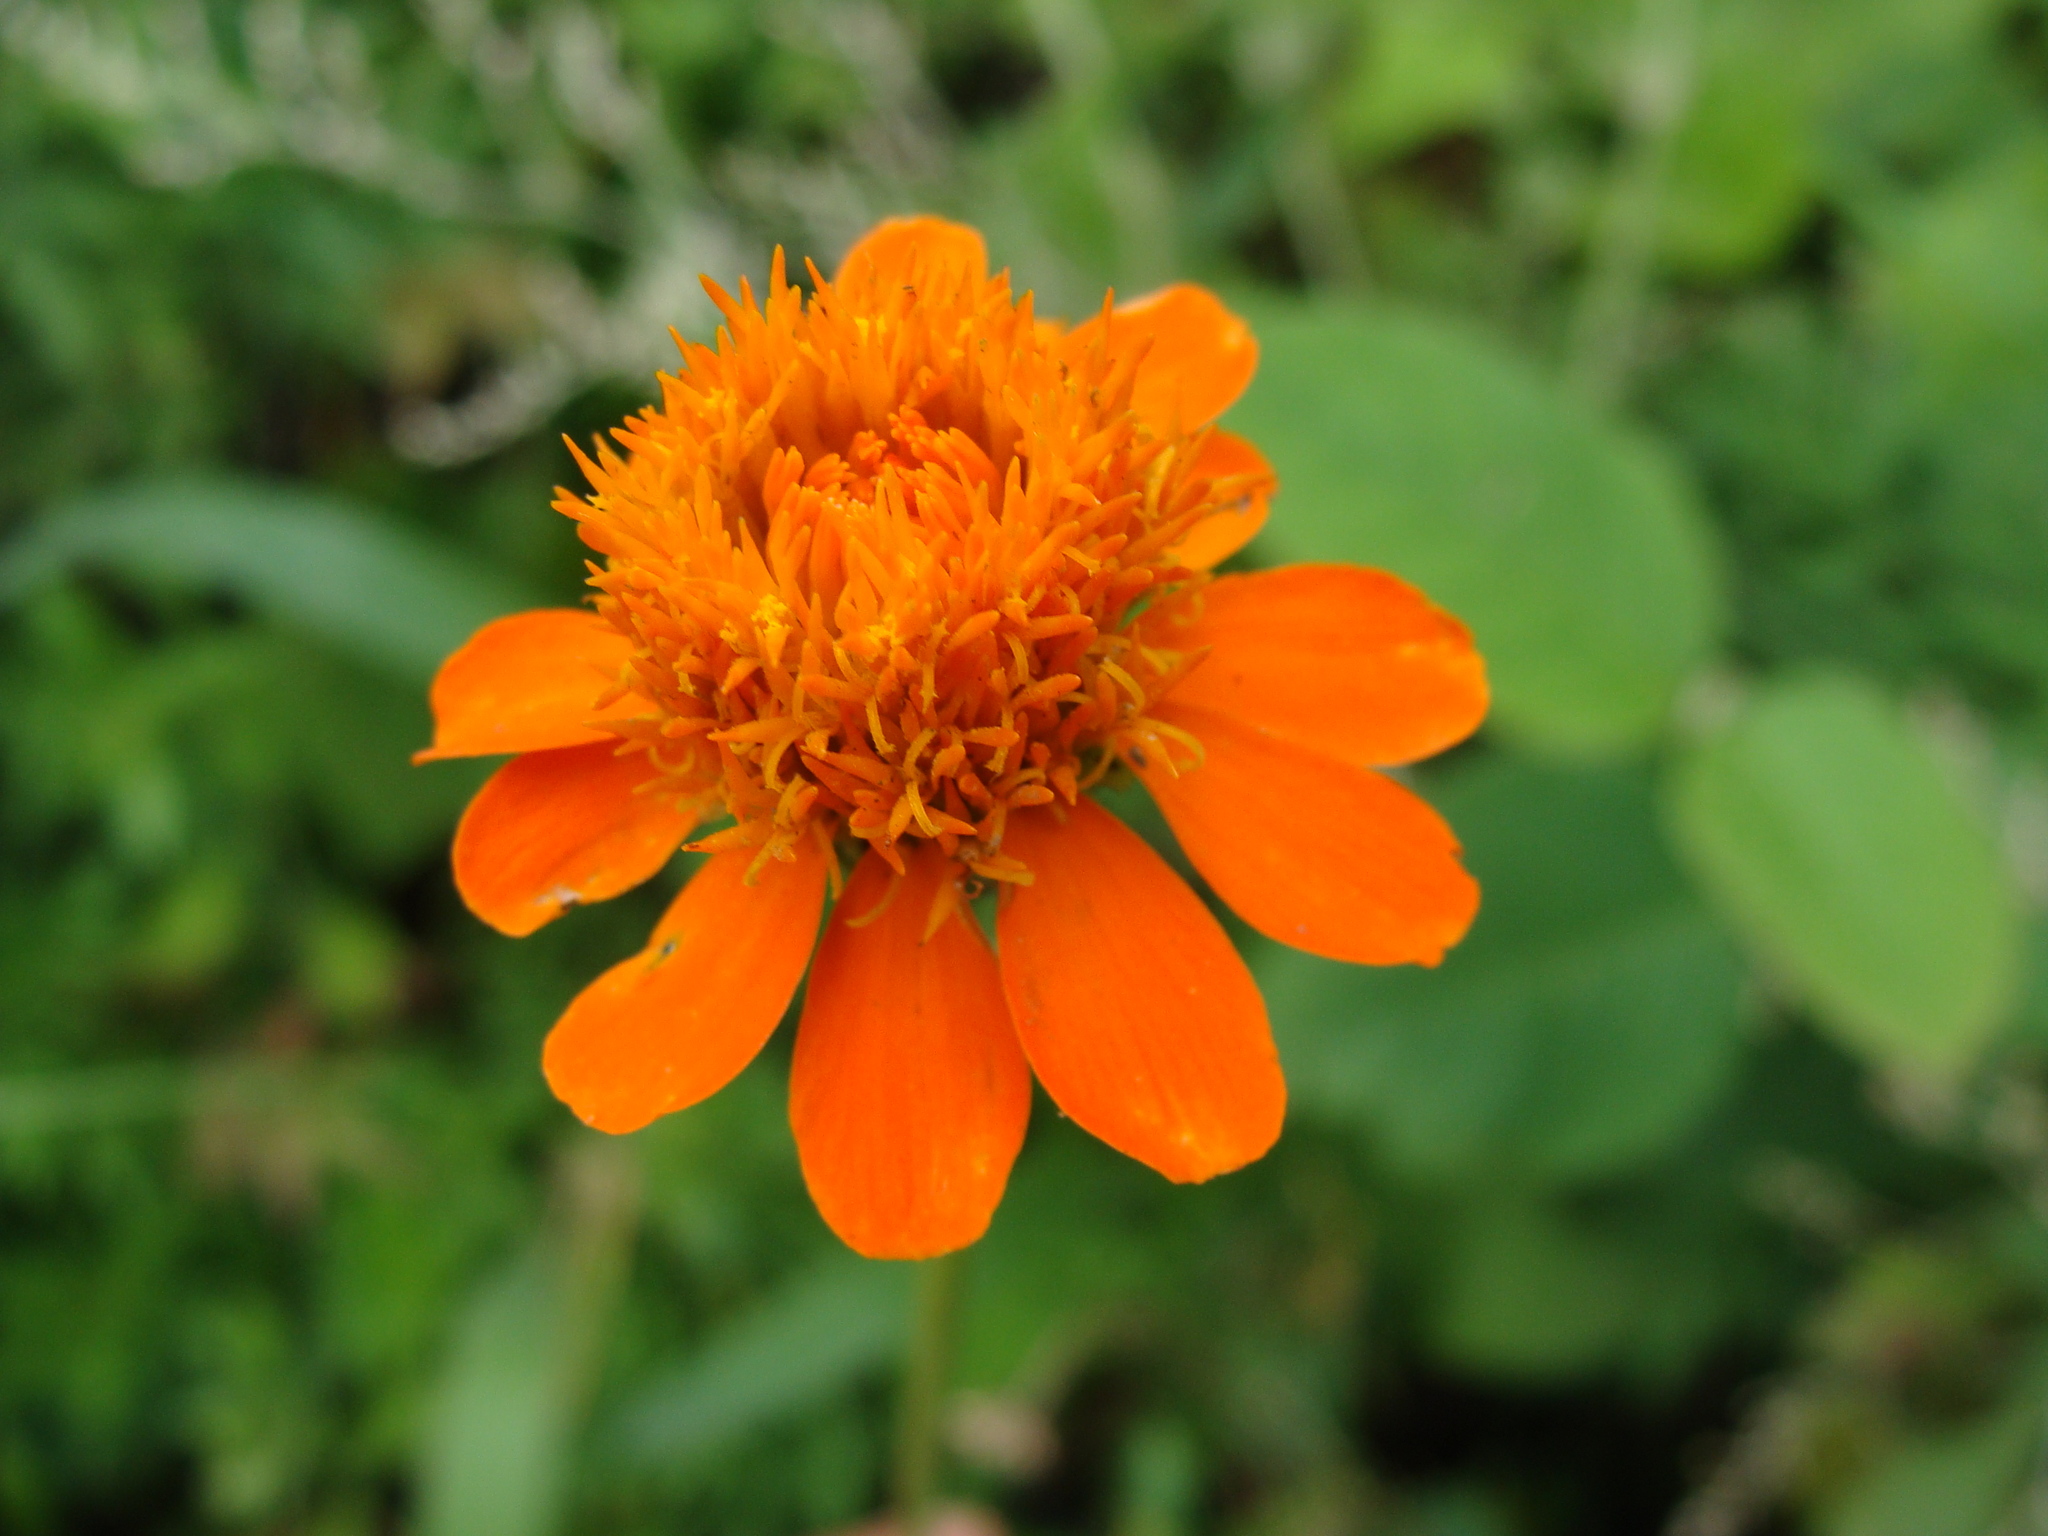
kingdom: Plantae
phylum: Tracheophyta
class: Magnoliopsida
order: Asterales
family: Asteraceae
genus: Adenophyllum
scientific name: Adenophyllum aurantium
